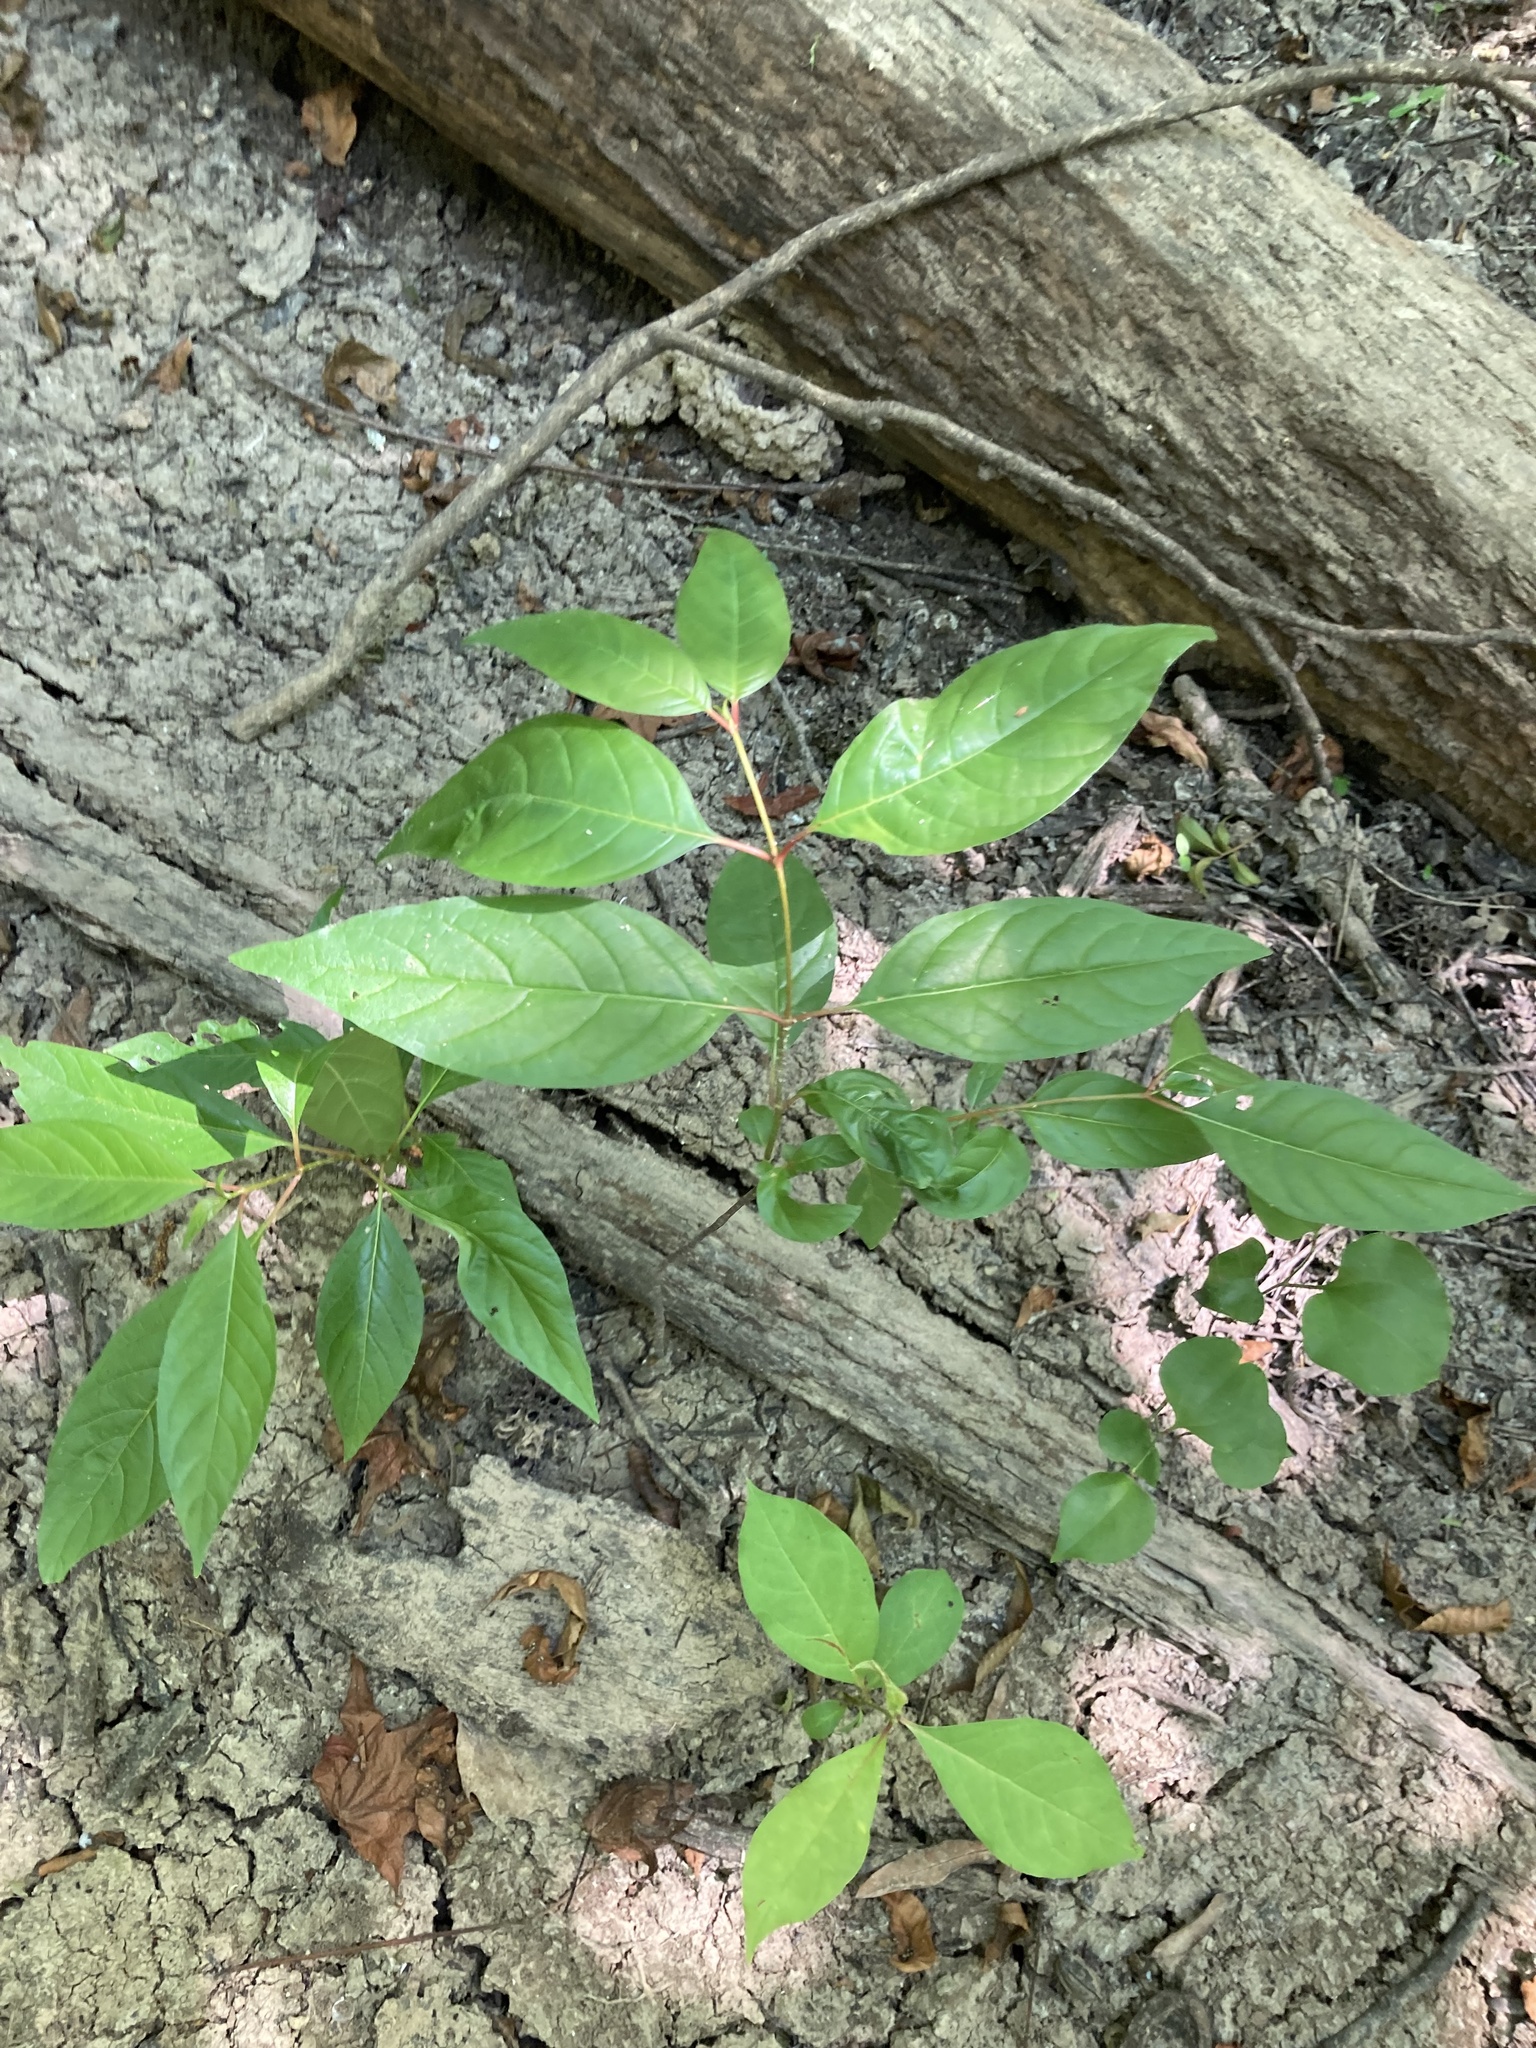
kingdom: Plantae
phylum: Tracheophyta
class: Magnoliopsida
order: Gentianales
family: Rubiaceae
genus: Cephalanthus
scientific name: Cephalanthus occidentalis
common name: Button-willow
